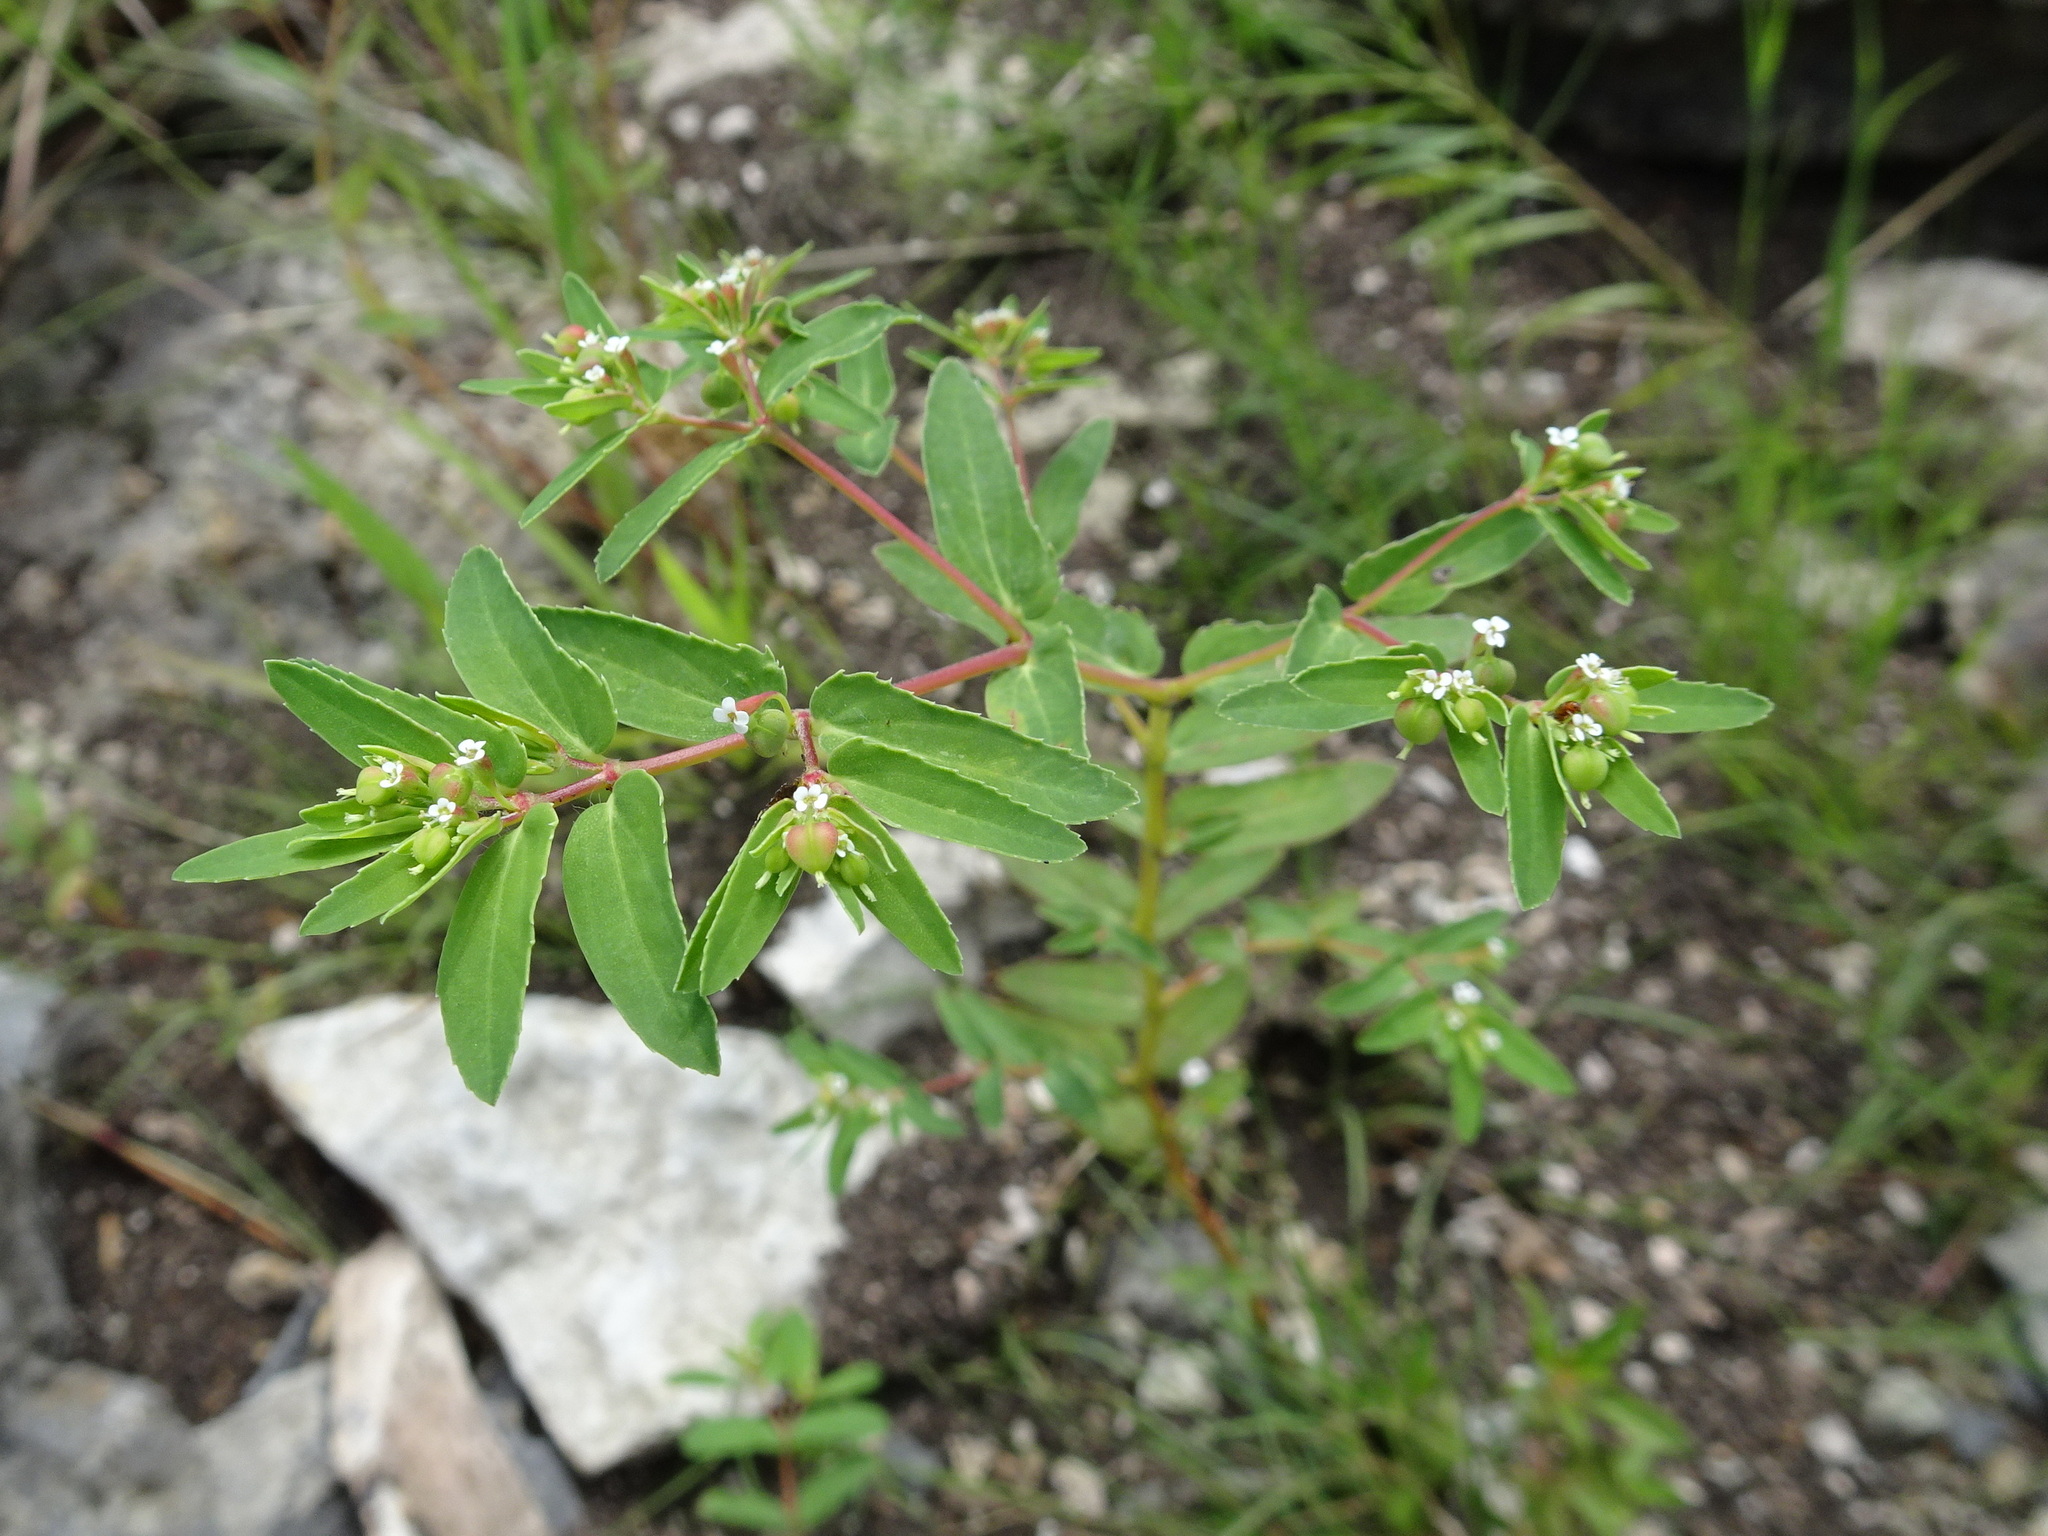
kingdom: Plantae
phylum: Tracheophyta
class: Magnoliopsida
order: Malpighiales
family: Euphorbiaceae
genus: Euphorbia
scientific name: Euphorbia nutans
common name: Eyebane
